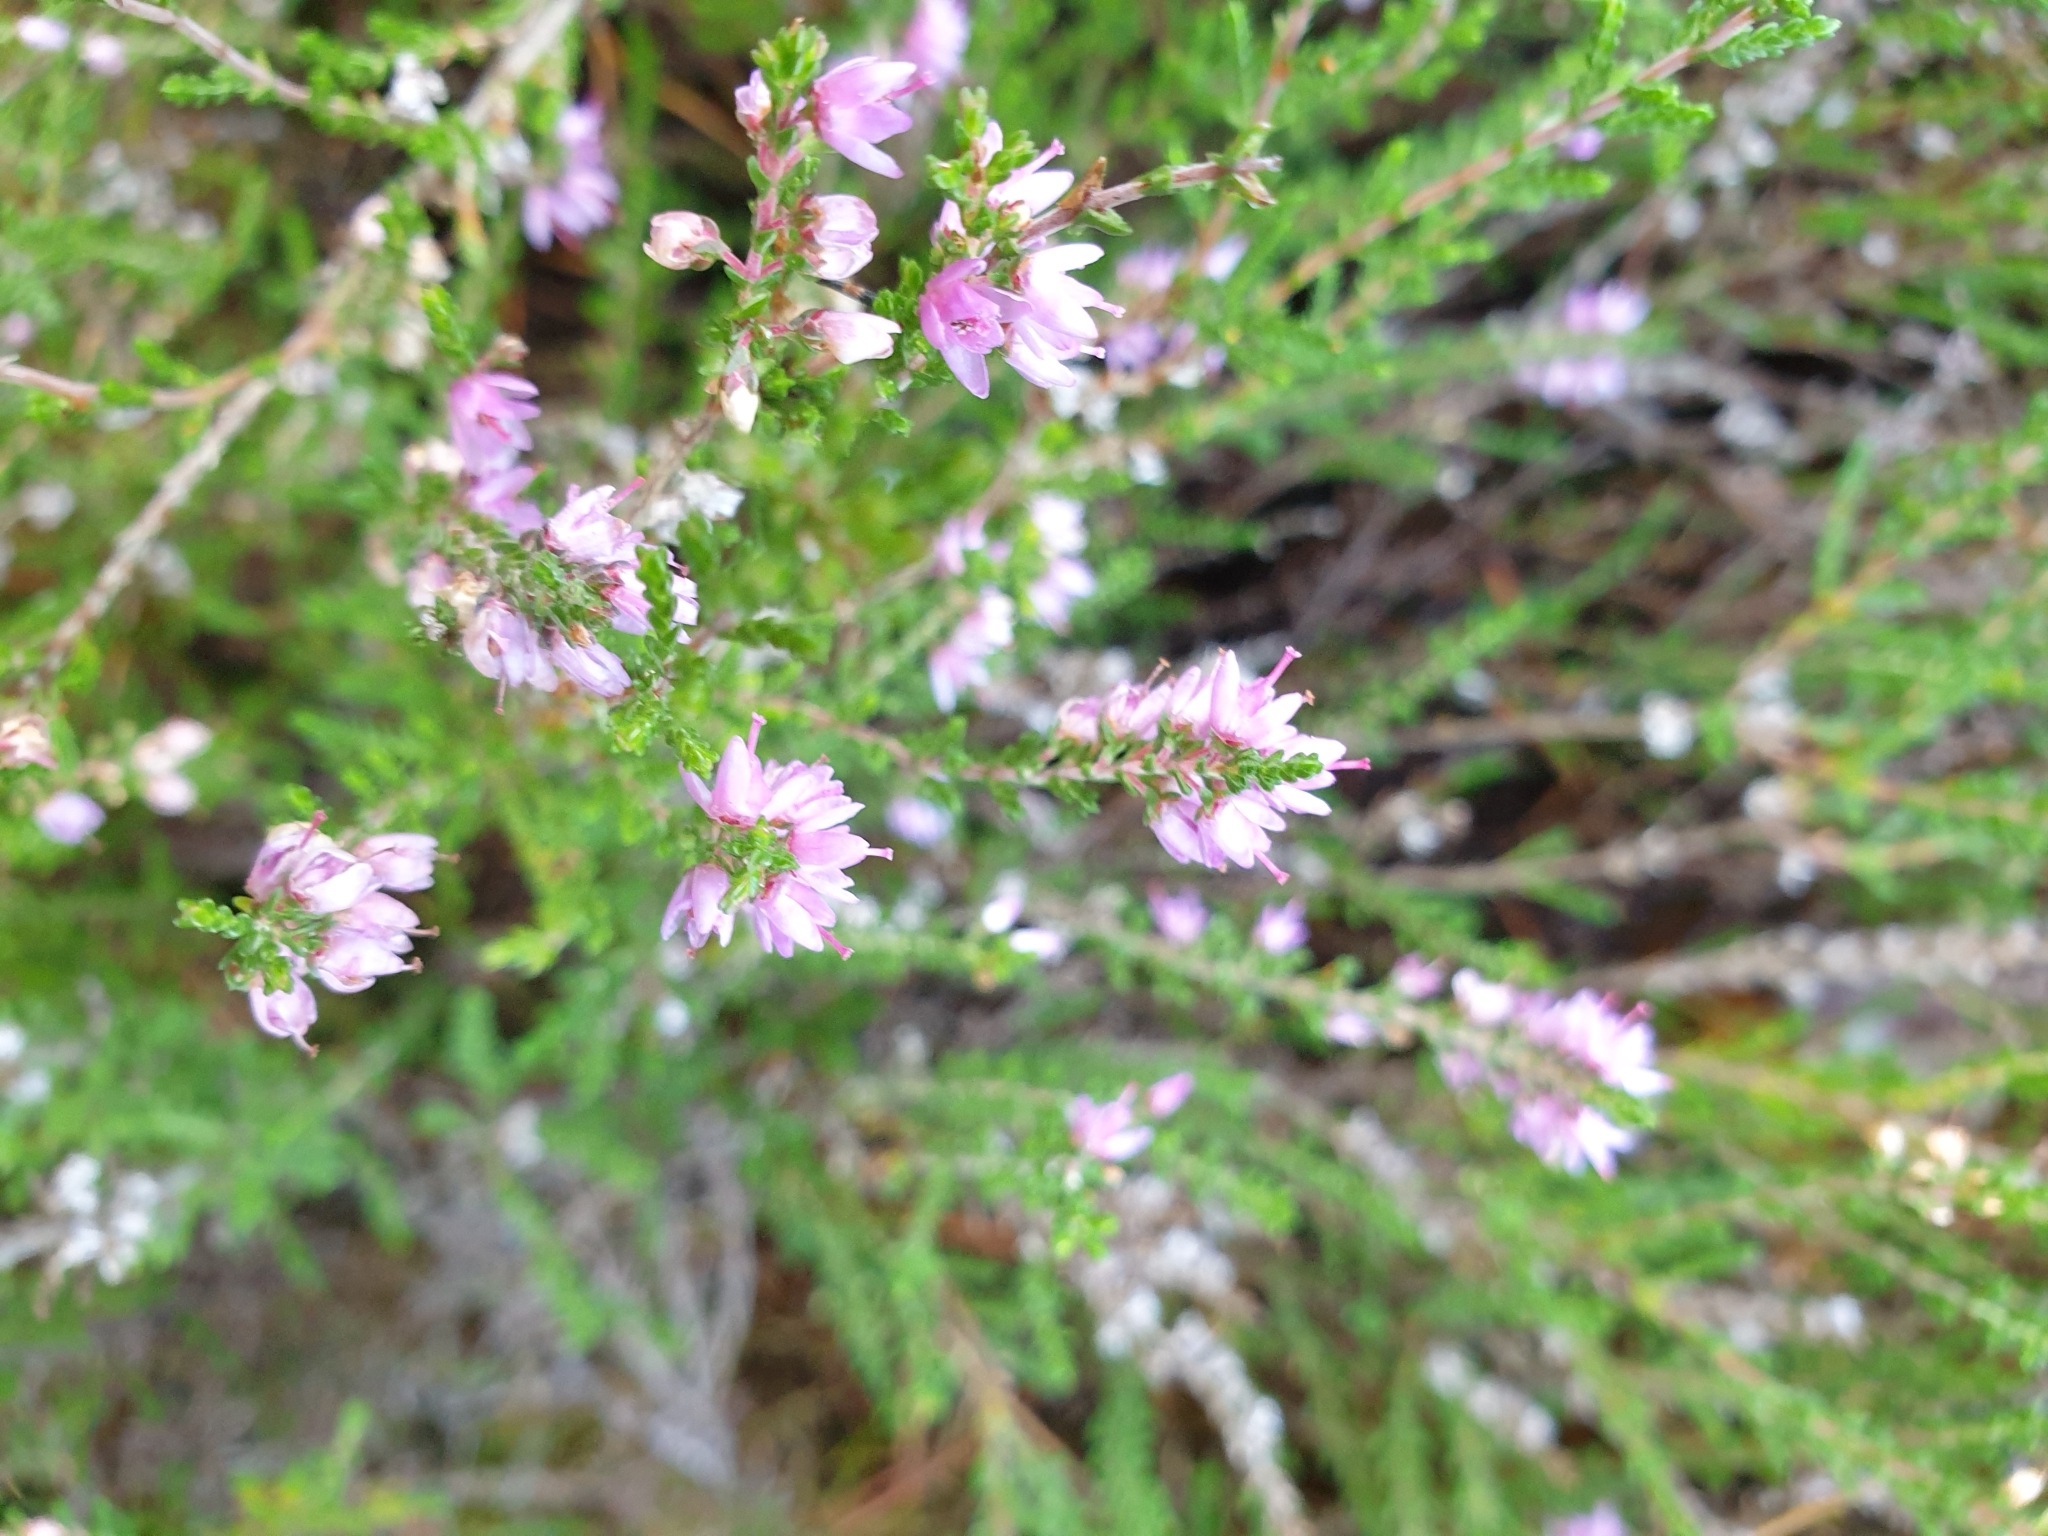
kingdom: Plantae
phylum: Tracheophyta
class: Magnoliopsida
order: Ericales
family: Ericaceae
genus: Calluna
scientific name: Calluna vulgaris
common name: Heather
